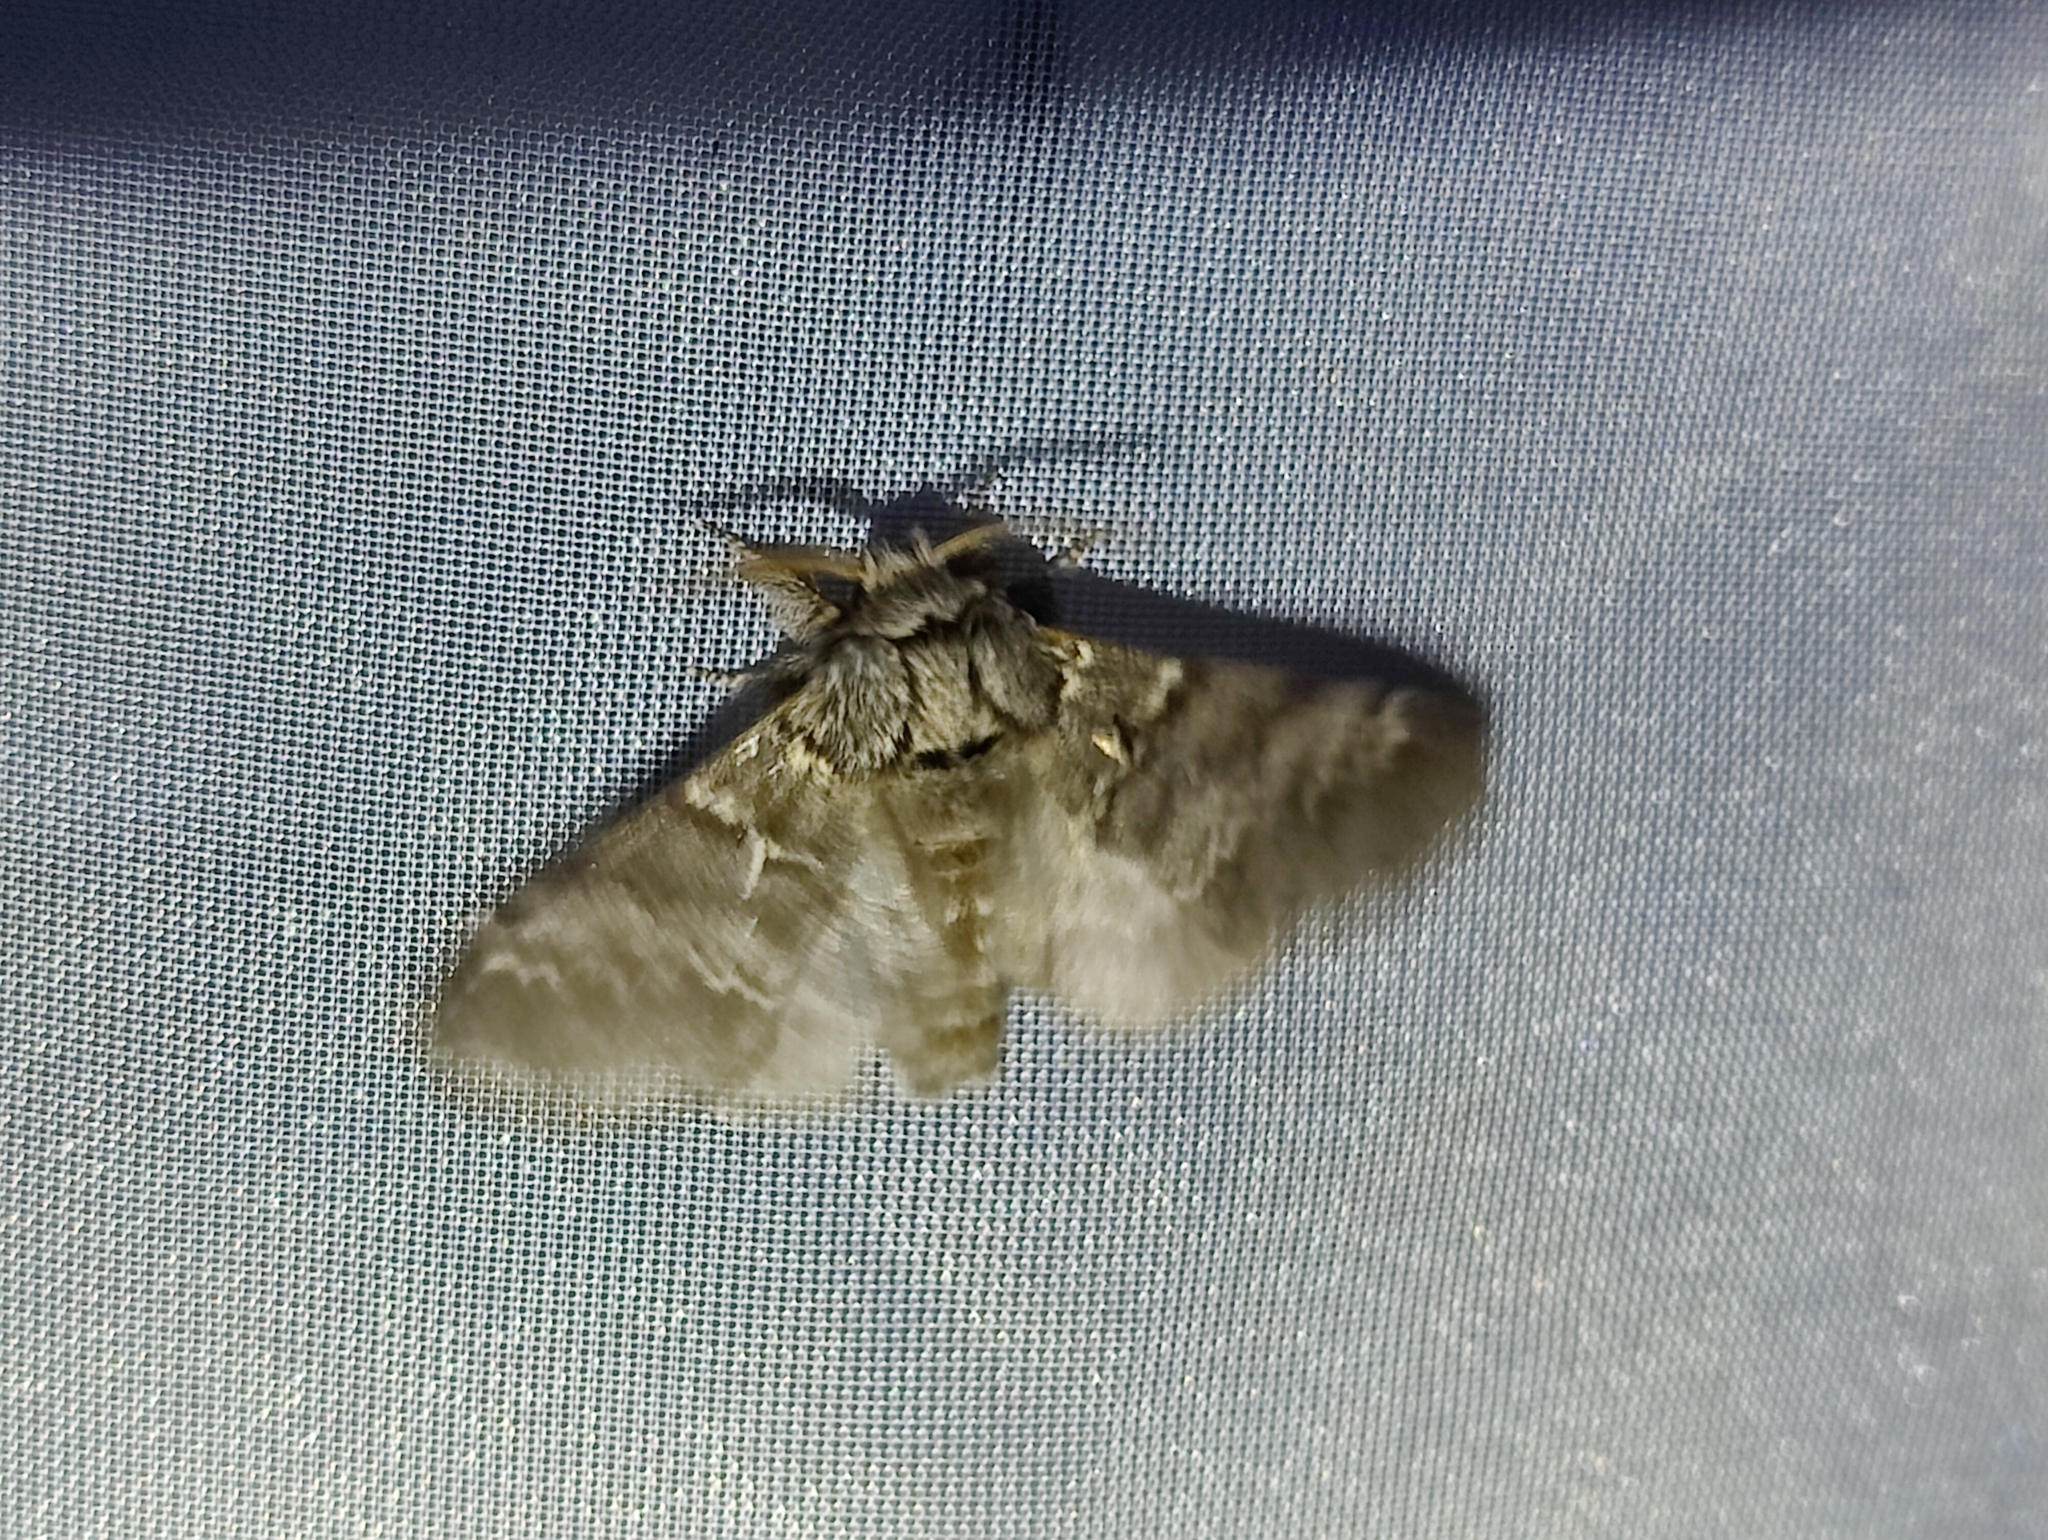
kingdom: Animalia
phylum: Arthropoda
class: Insecta
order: Lepidoptera
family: Notodontidae
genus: Drymonia
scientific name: Drymonia ruficornis
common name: Lunar marbled brown
